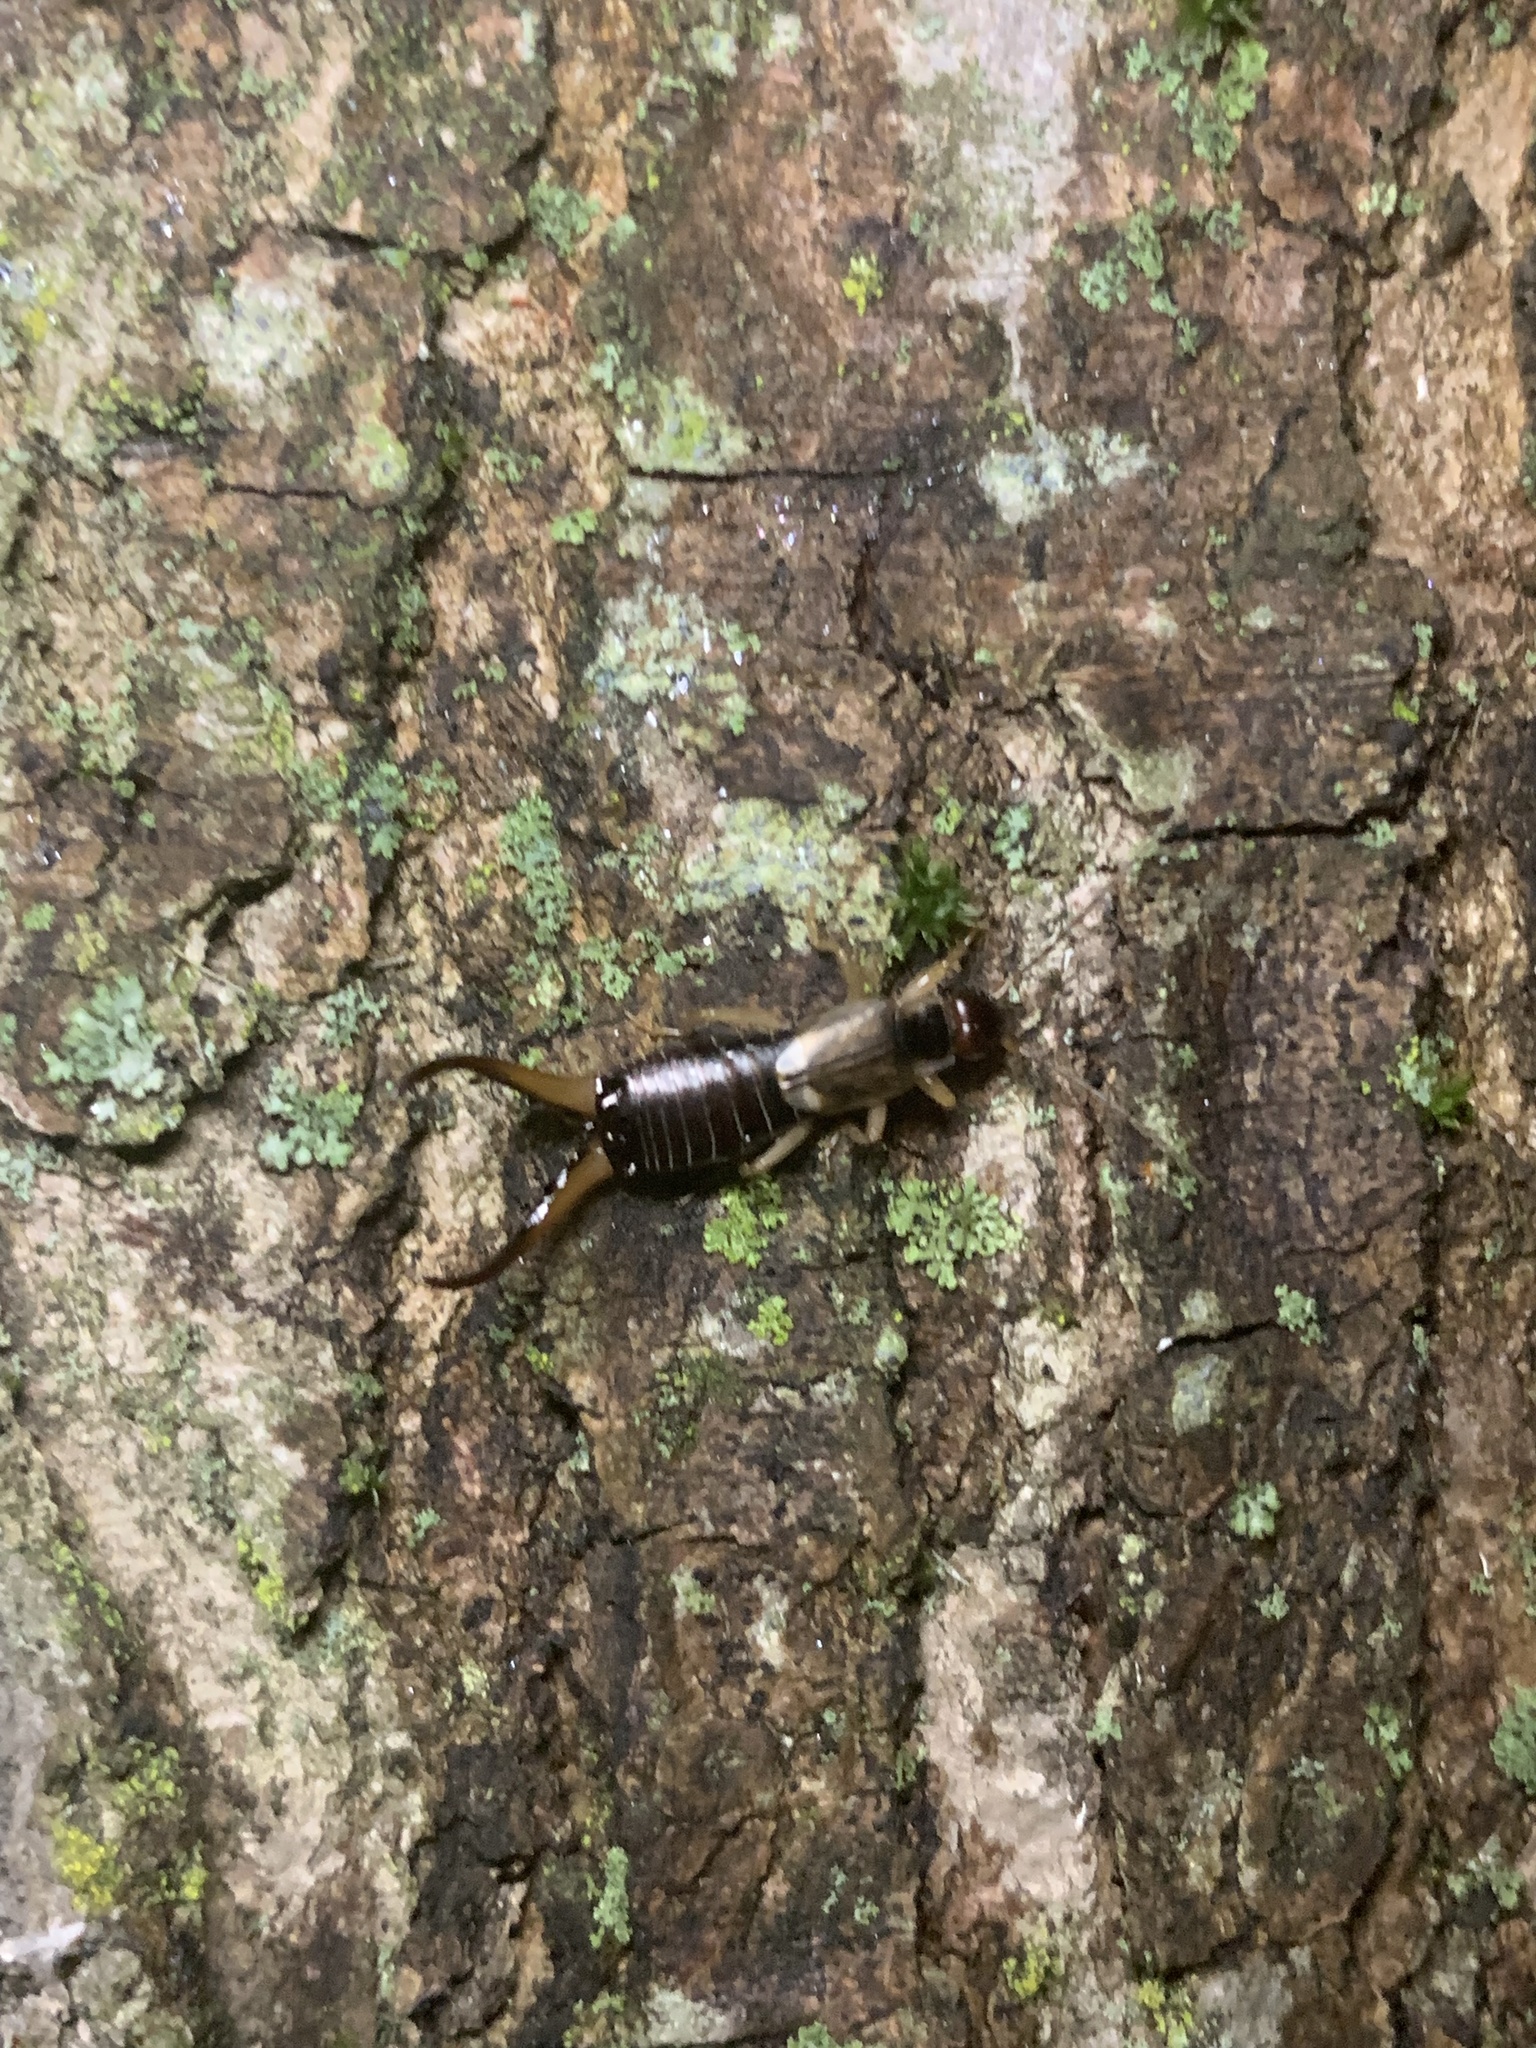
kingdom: Animalia
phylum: Arthropoda
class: Insecta
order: Dermaptera
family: Forficulidae
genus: Forficula
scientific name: Forficula
